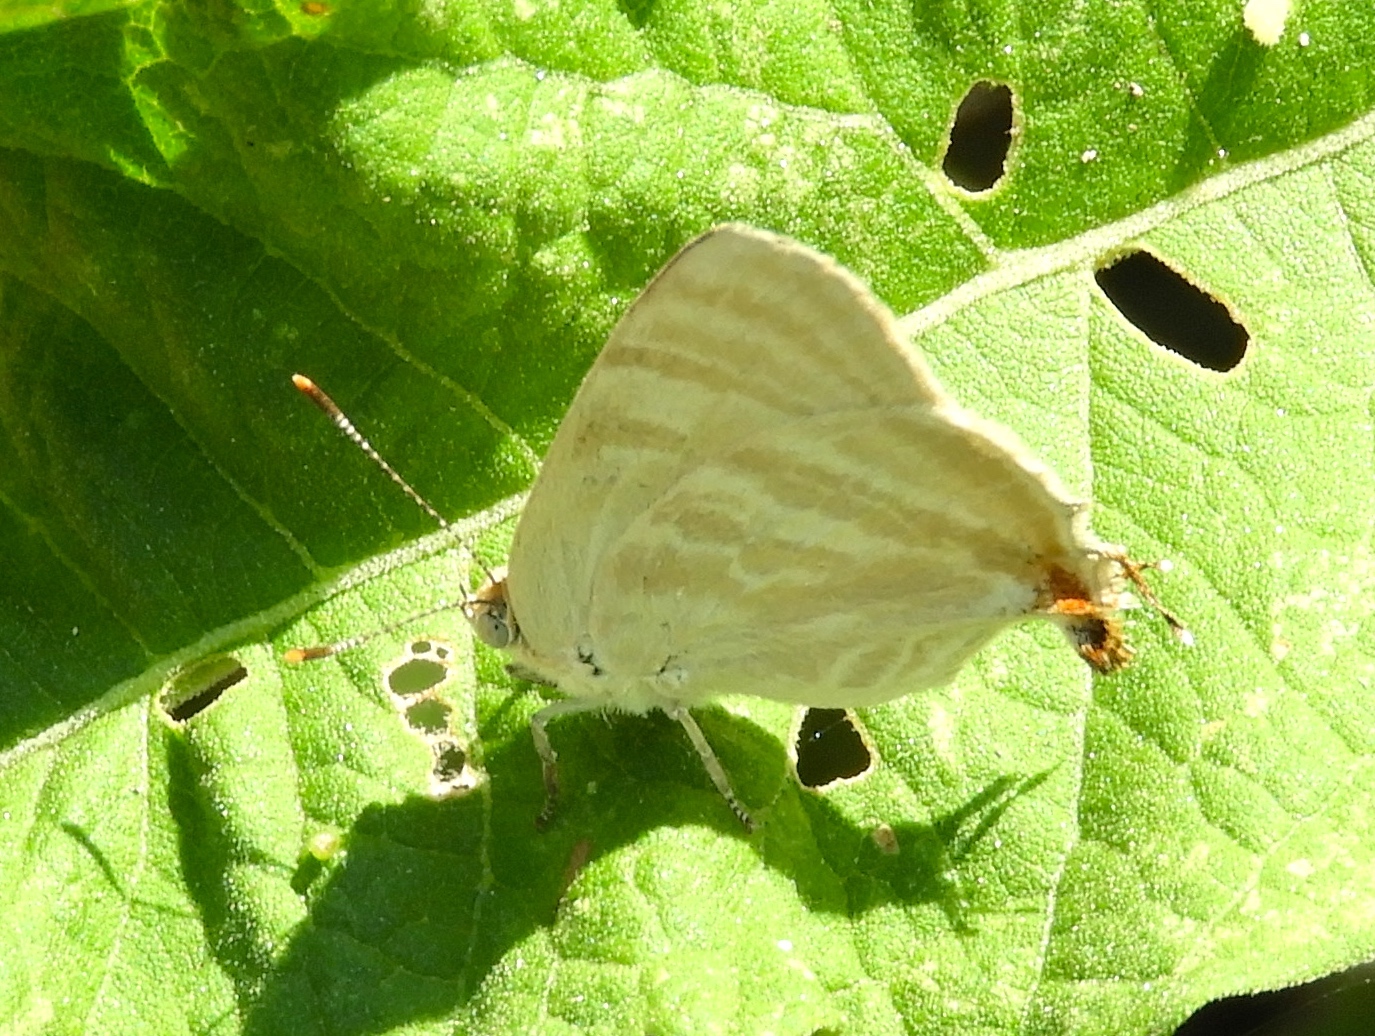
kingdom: Animalia
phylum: Arthropoda
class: Insecta
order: Lepidoptera
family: Lycaenidae
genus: Dolymorpha
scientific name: Dolymorpha jada
